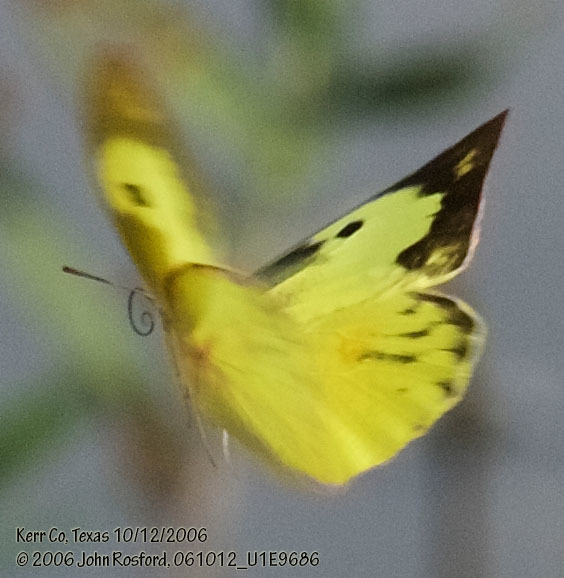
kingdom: Animalia
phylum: Arthropoda
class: Insecta
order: Lepidoptera
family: Pieridae
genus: Zerene
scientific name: Zerene cesonia
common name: Southern dogface
